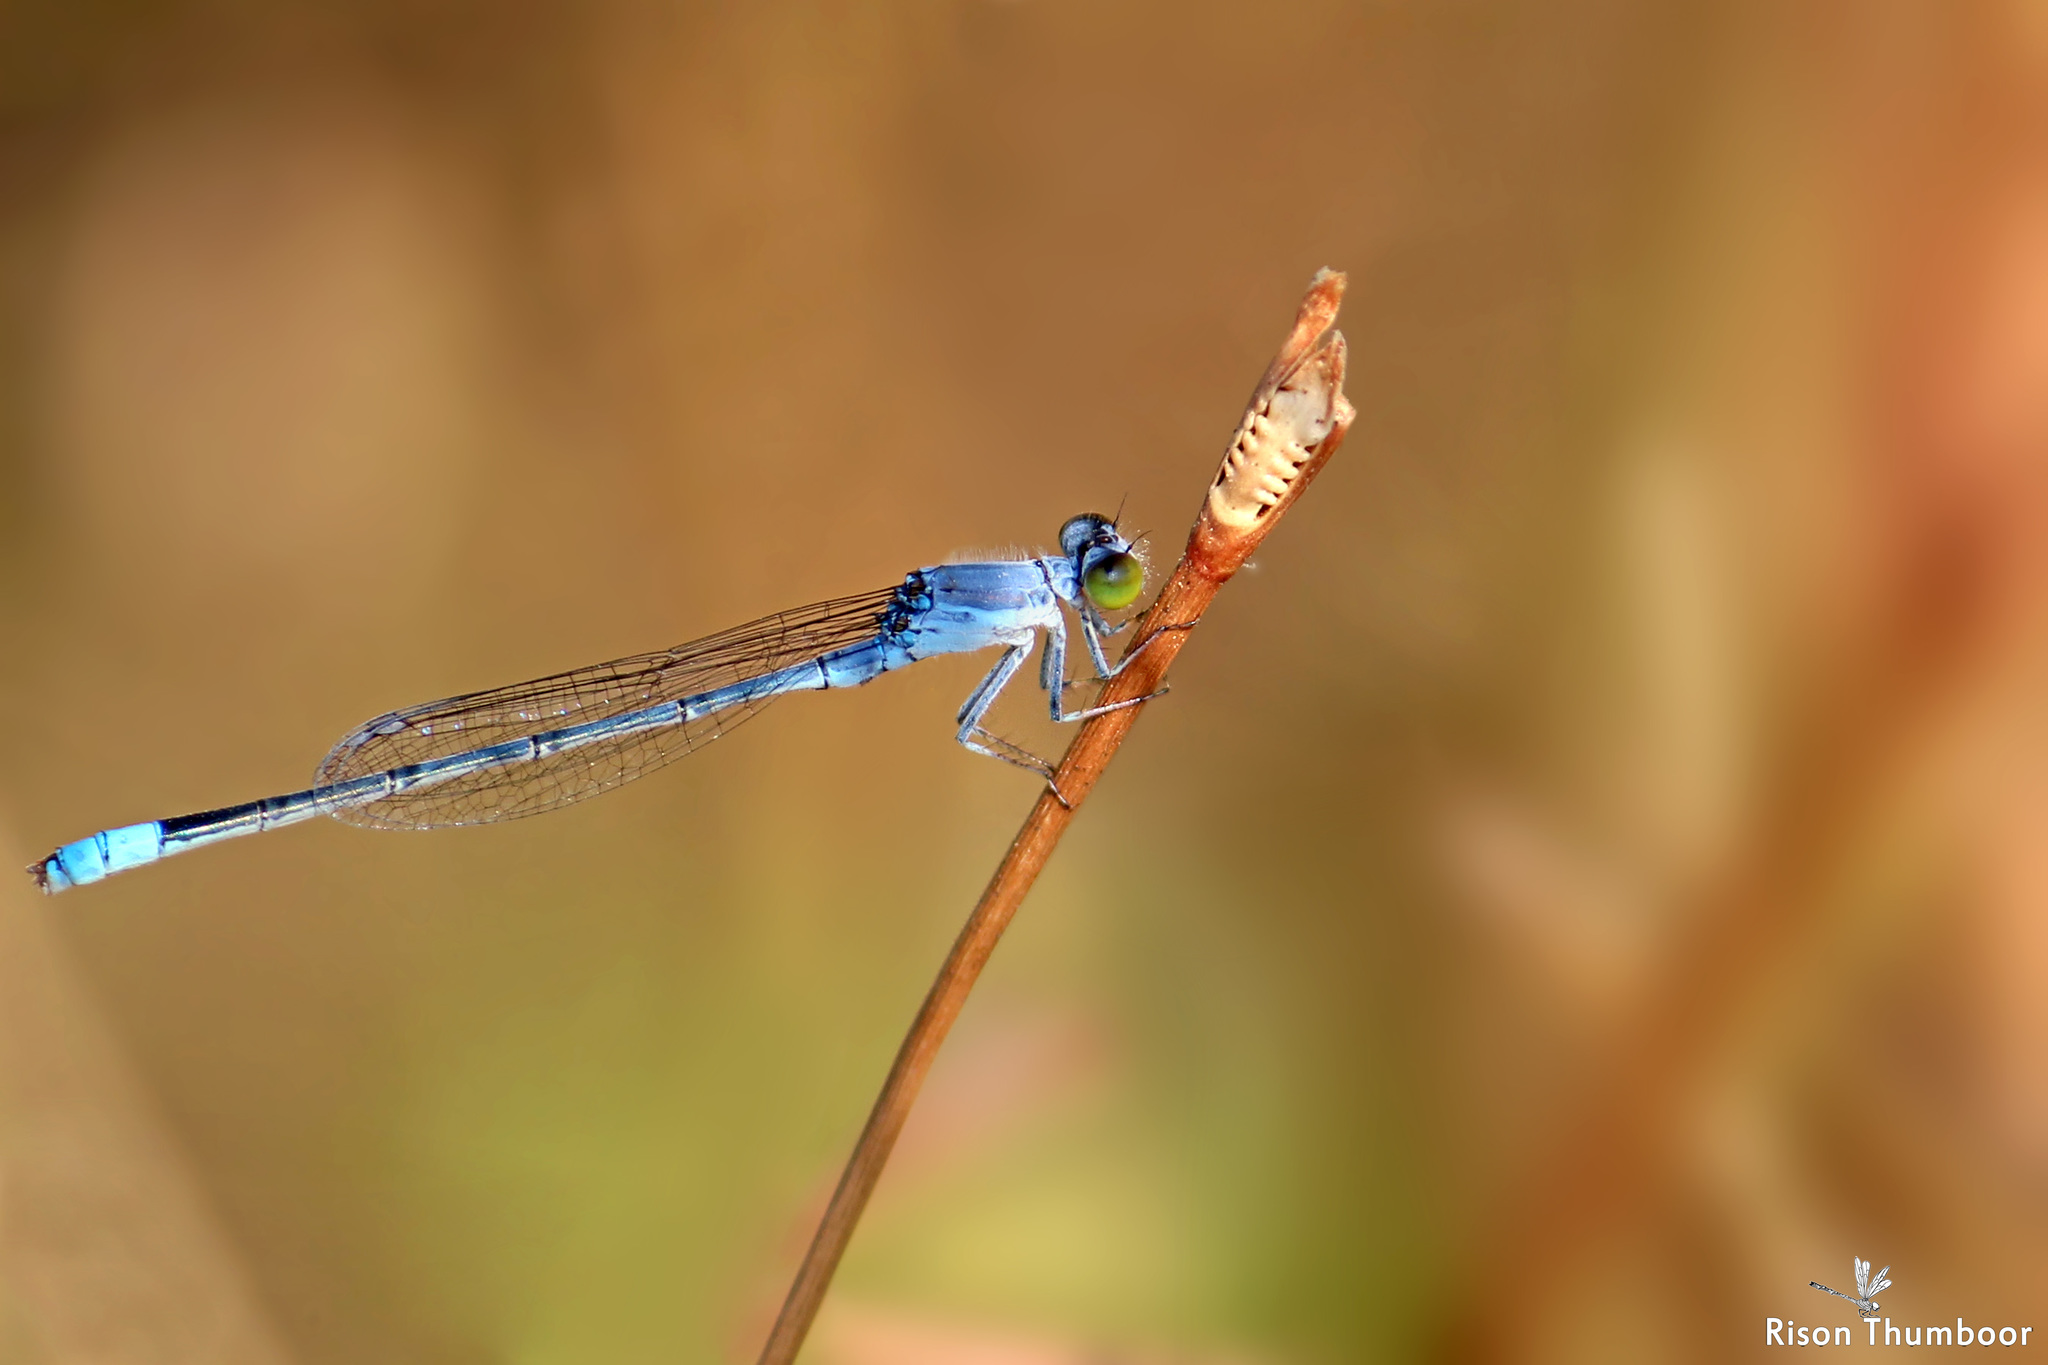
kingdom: Animalia
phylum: Arthropoda
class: Insecta
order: Odonata
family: Coenagrionidae
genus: Paracercion
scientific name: Paracercion calamorum
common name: Dusky lilysquatter
